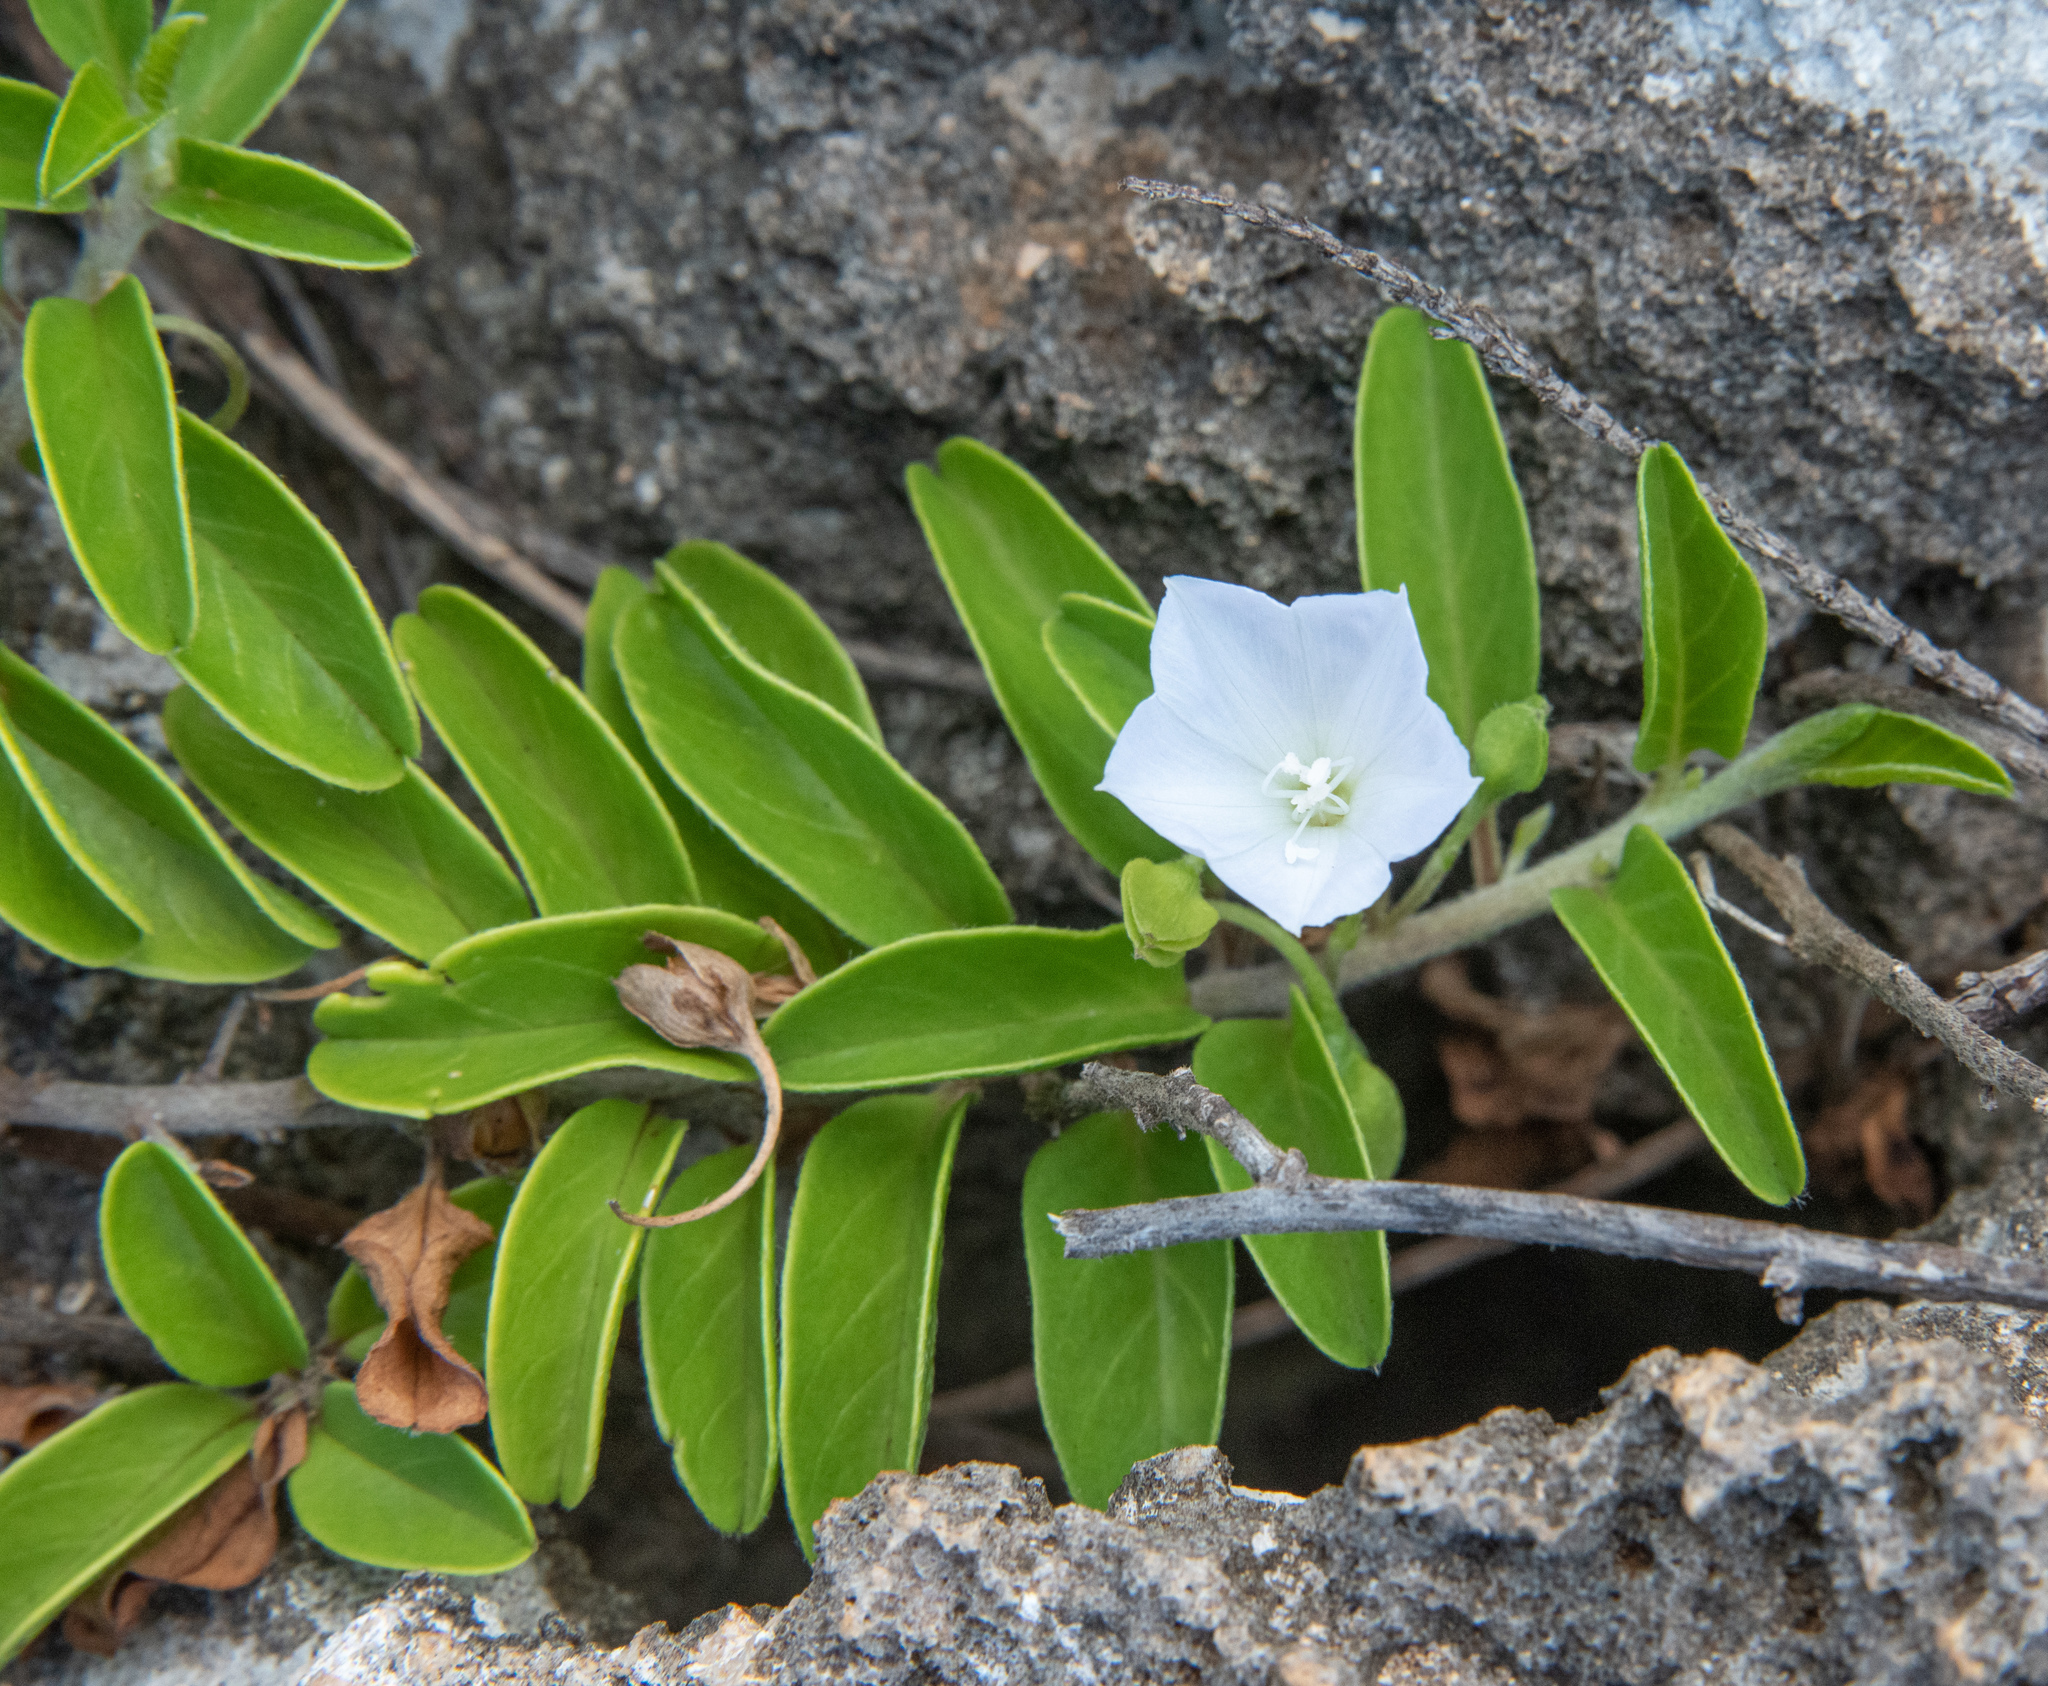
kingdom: Plantae
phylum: Tracheophyta
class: Magnoliopsida
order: Solanales
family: Convolvulaceae
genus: Jacquemontia
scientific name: Jacquemontia sandwicensis
